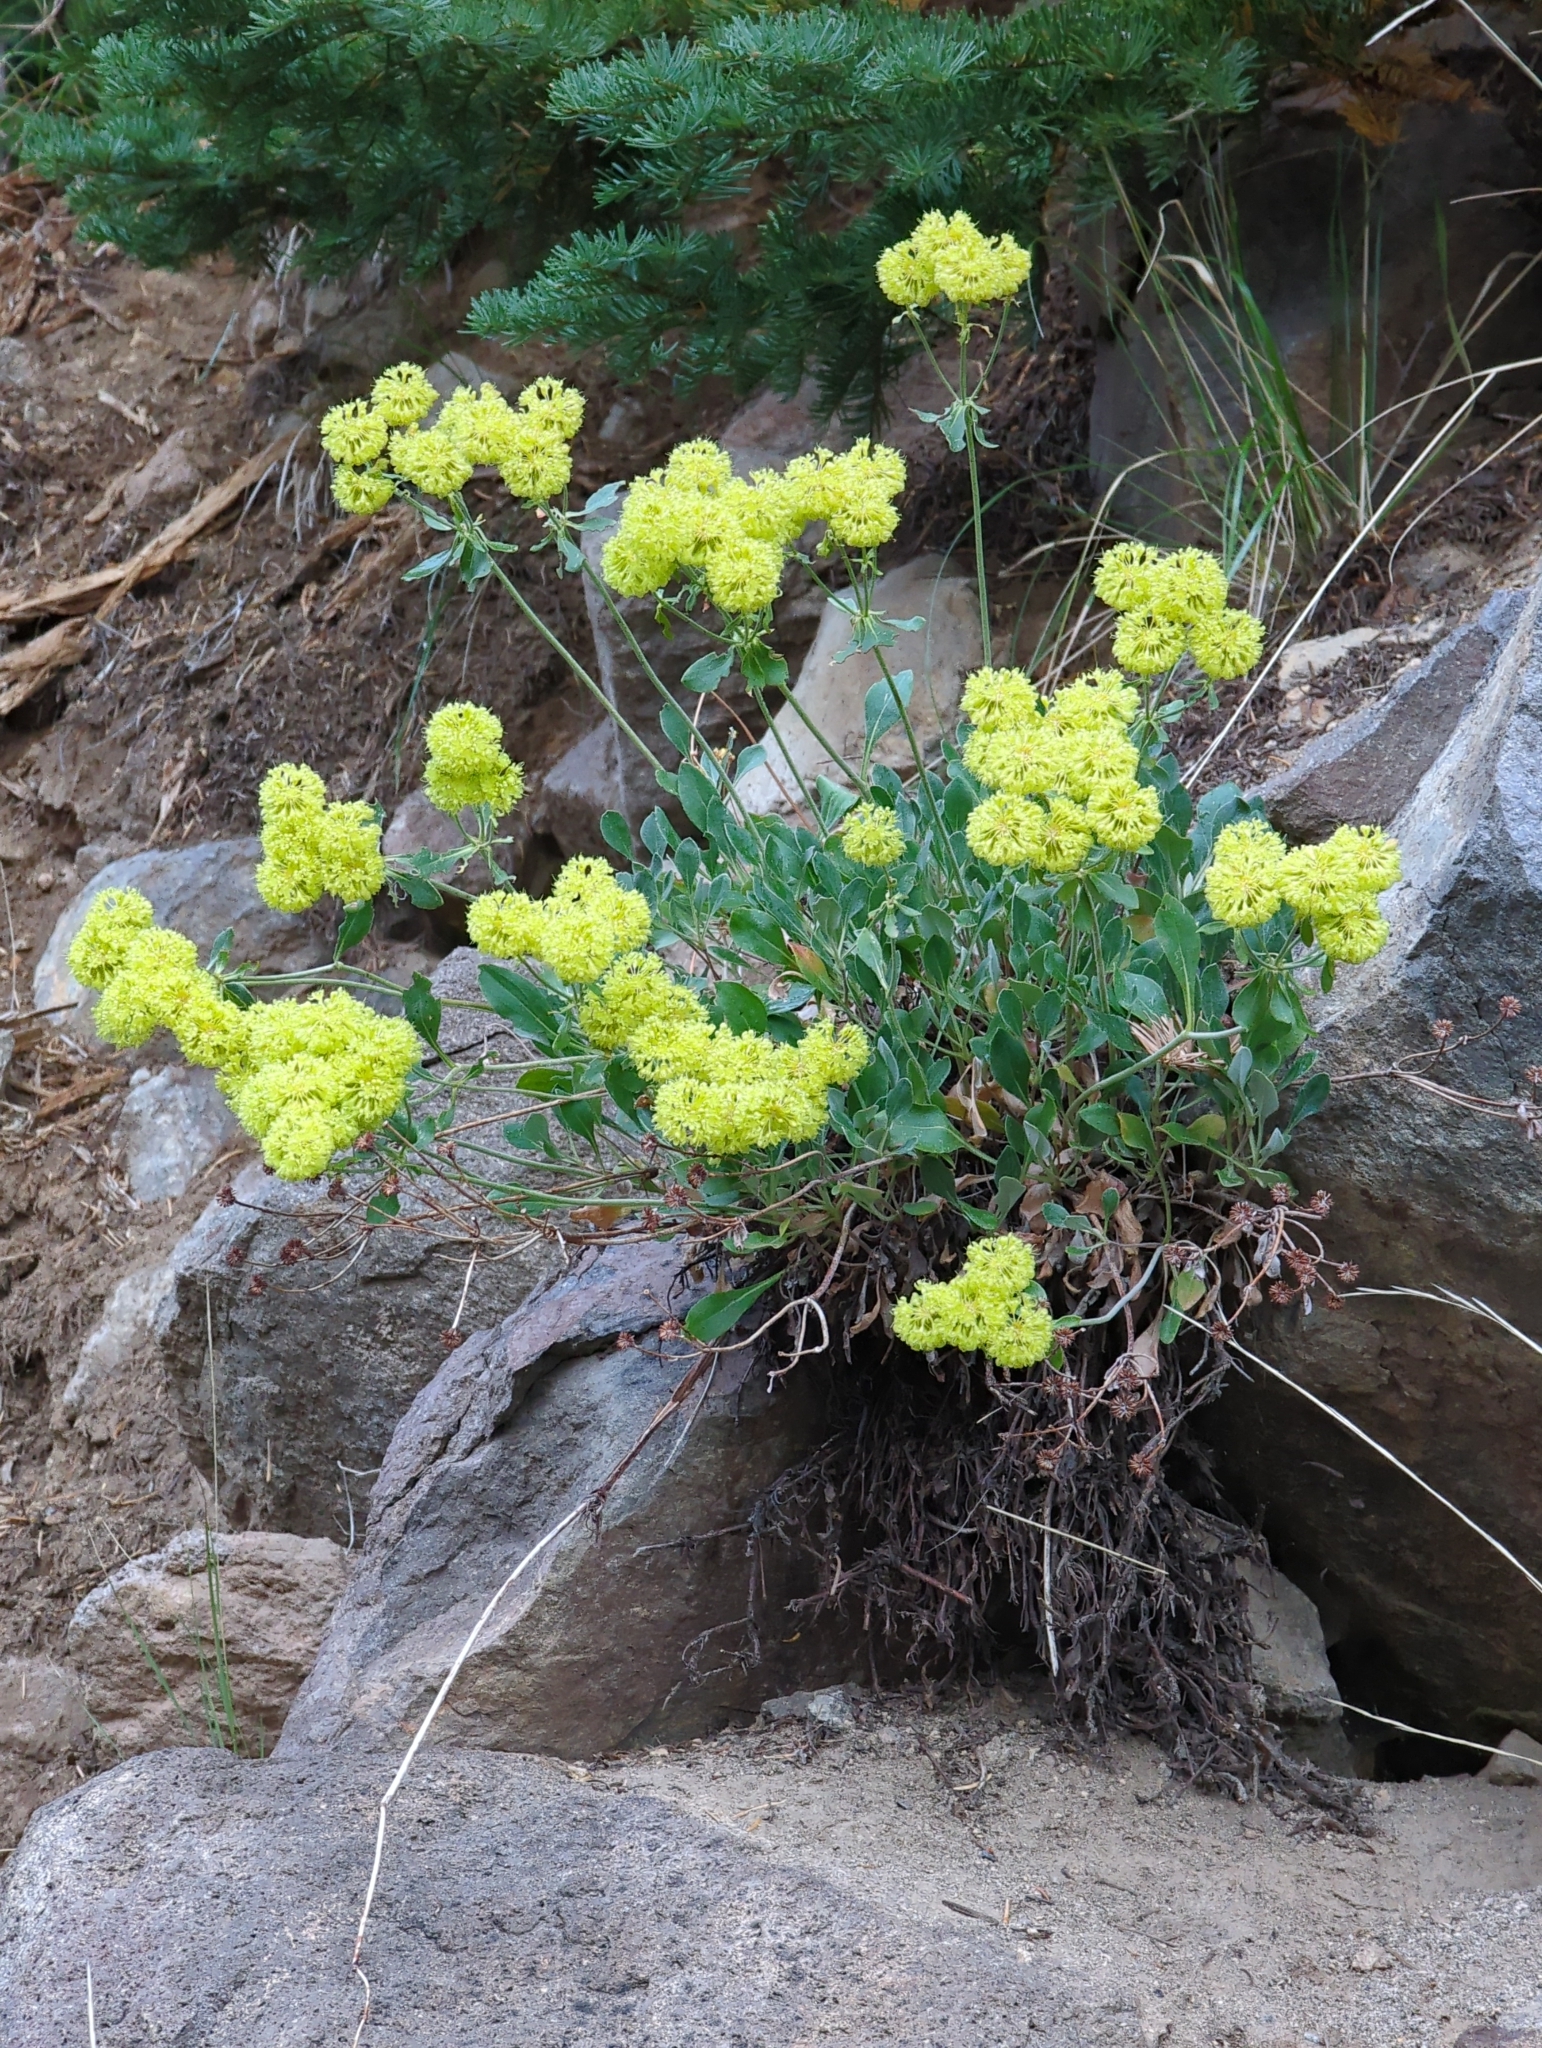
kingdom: Plantae
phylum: Tracheophyta
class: Magnoliopsida
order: Caryophyllales
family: Polygonaceae
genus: Eriogonum
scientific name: Eriogonum umbellatum
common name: Sulfur-buckwheat
